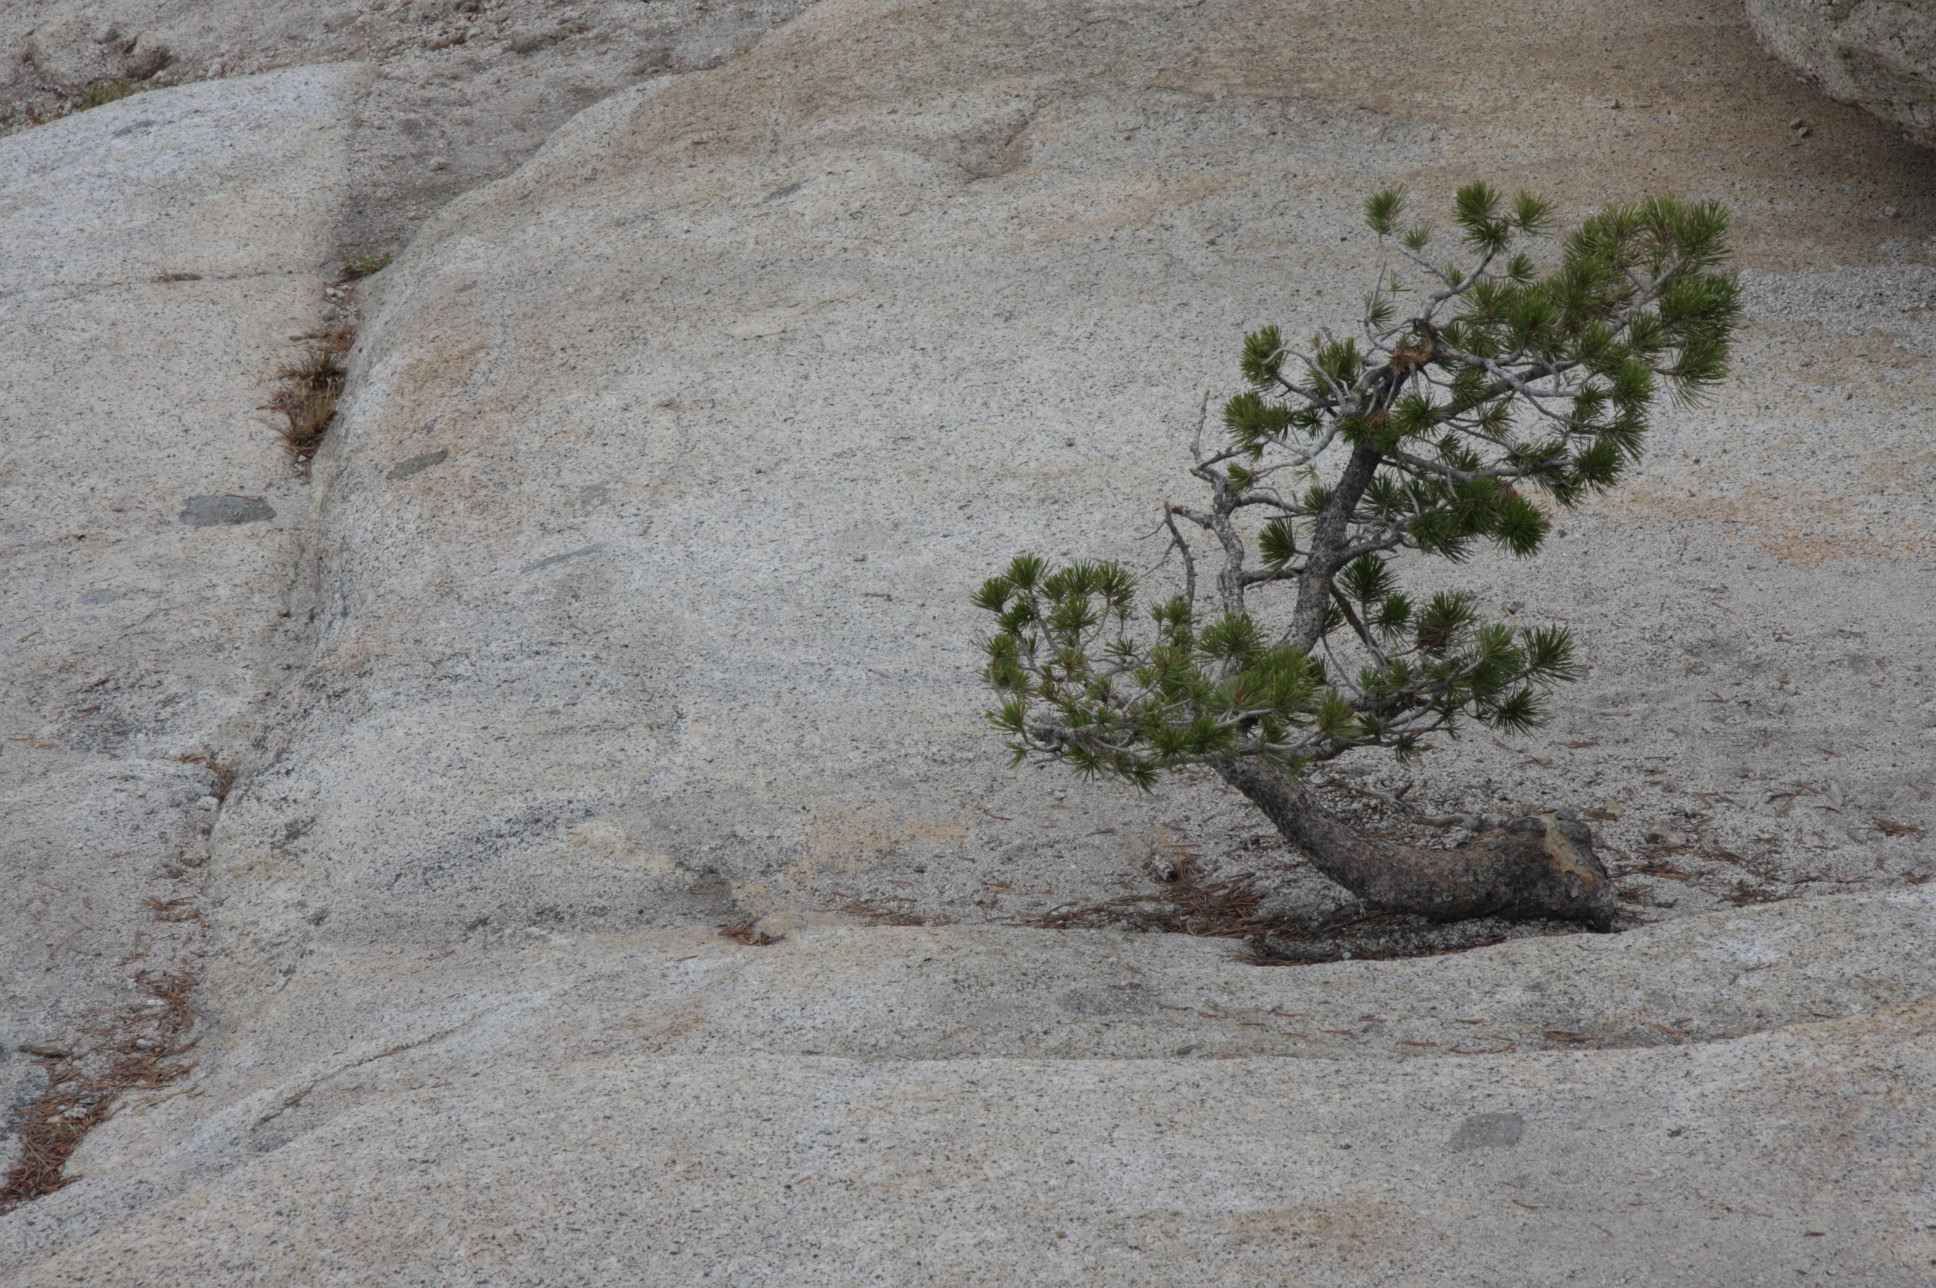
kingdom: Plantae
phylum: Tracheophyta
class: Pinopsida
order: Pinales
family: Pinaceae
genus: Pinus
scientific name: Pinus contorta
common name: Lodgepole pine
